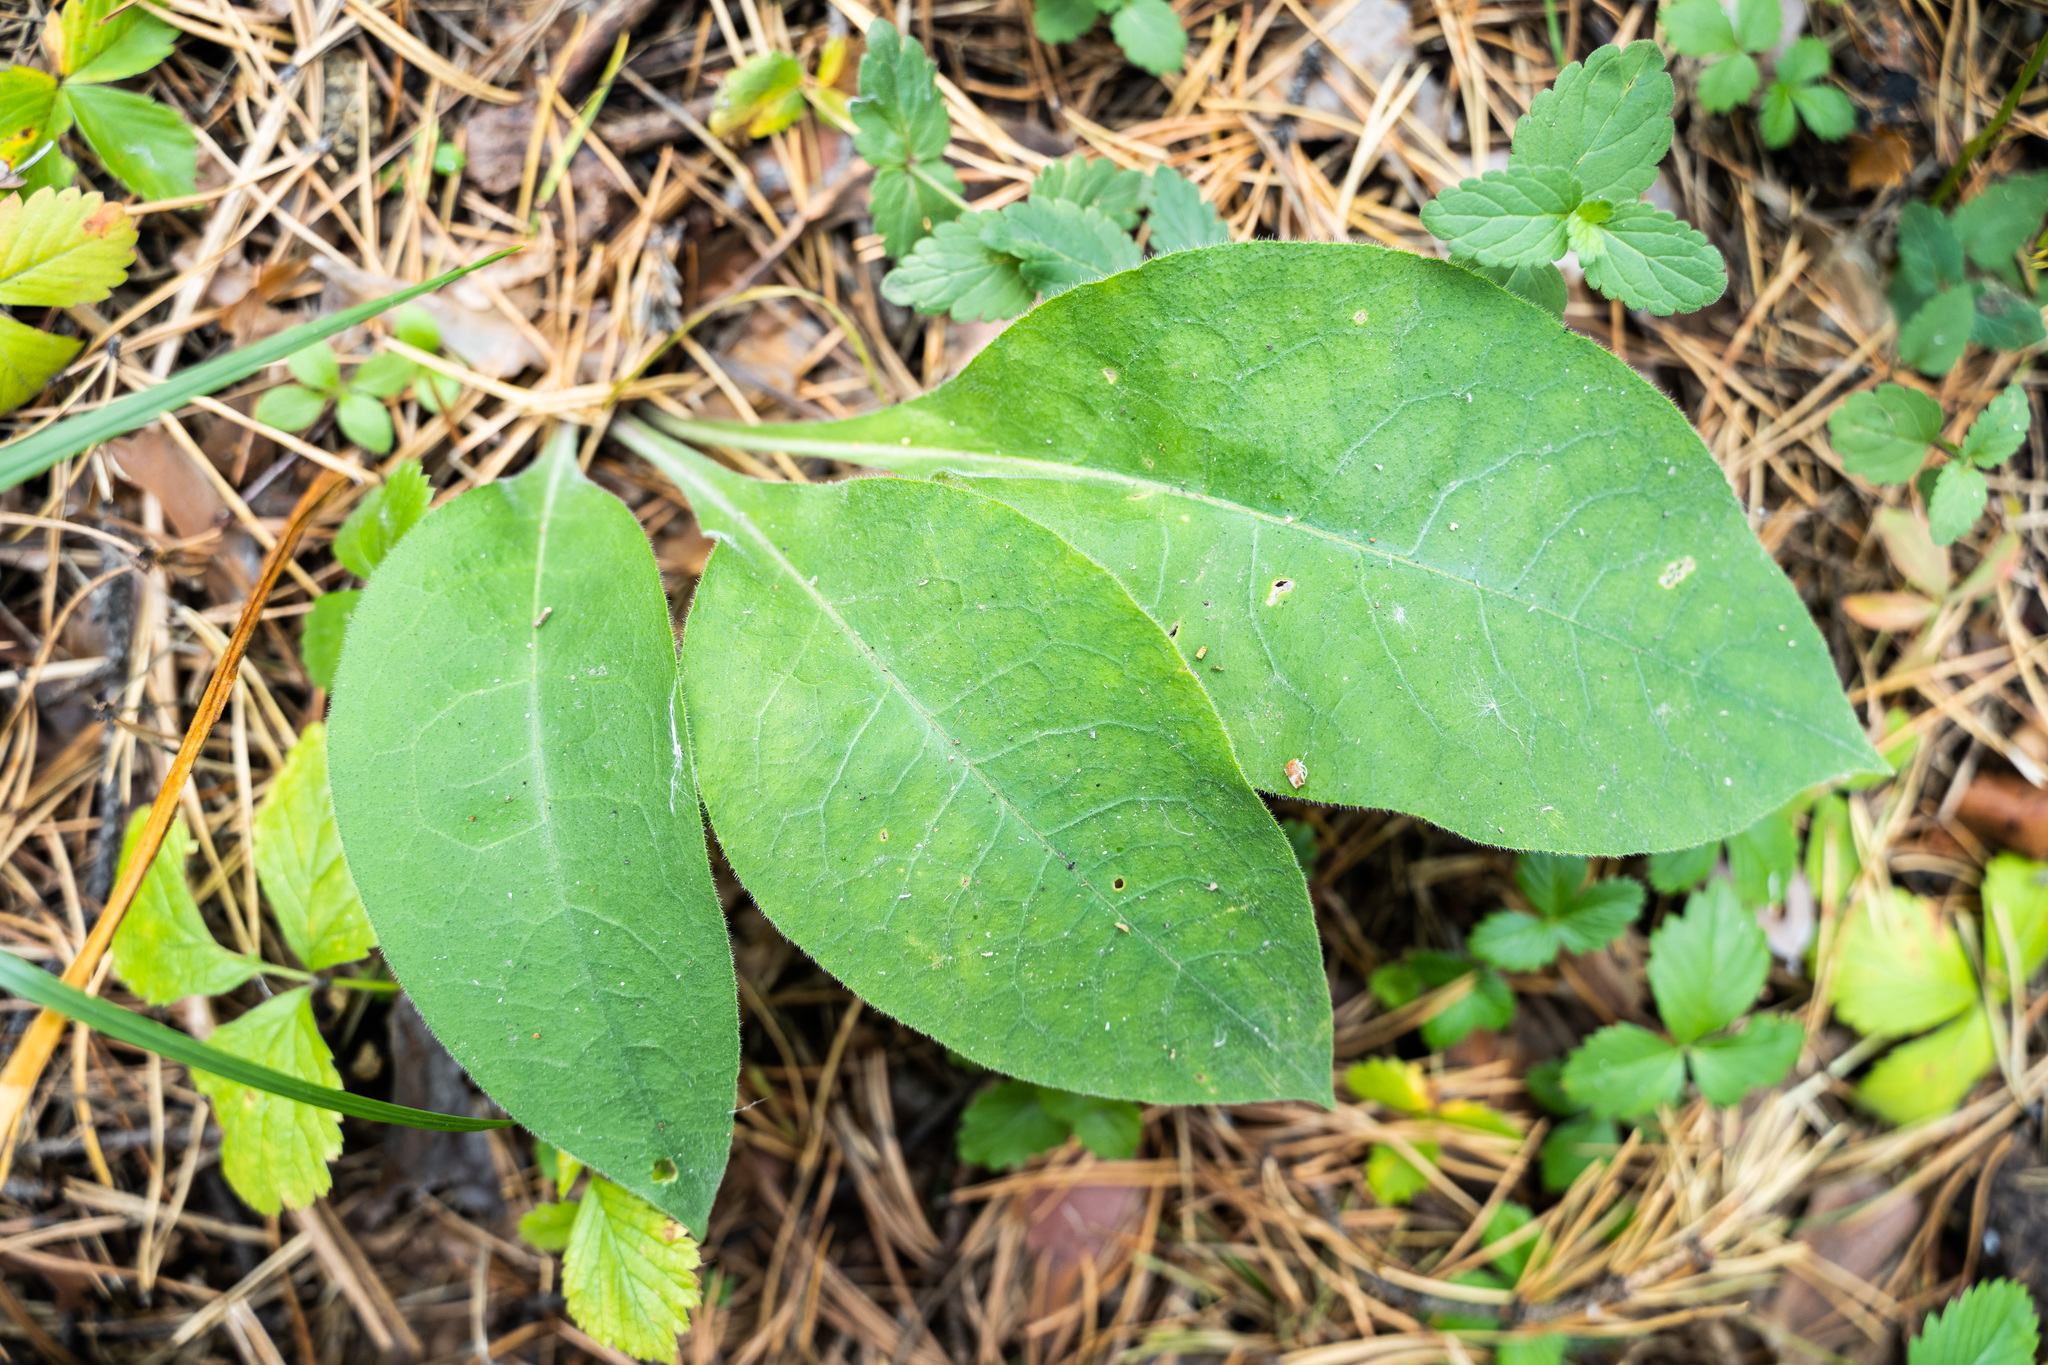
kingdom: Plantae
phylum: Tracheophyta
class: Magnoliopsida
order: Boraginales
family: Boraginaceae
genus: Pulmonaria
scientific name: Pulmonaria mollis
